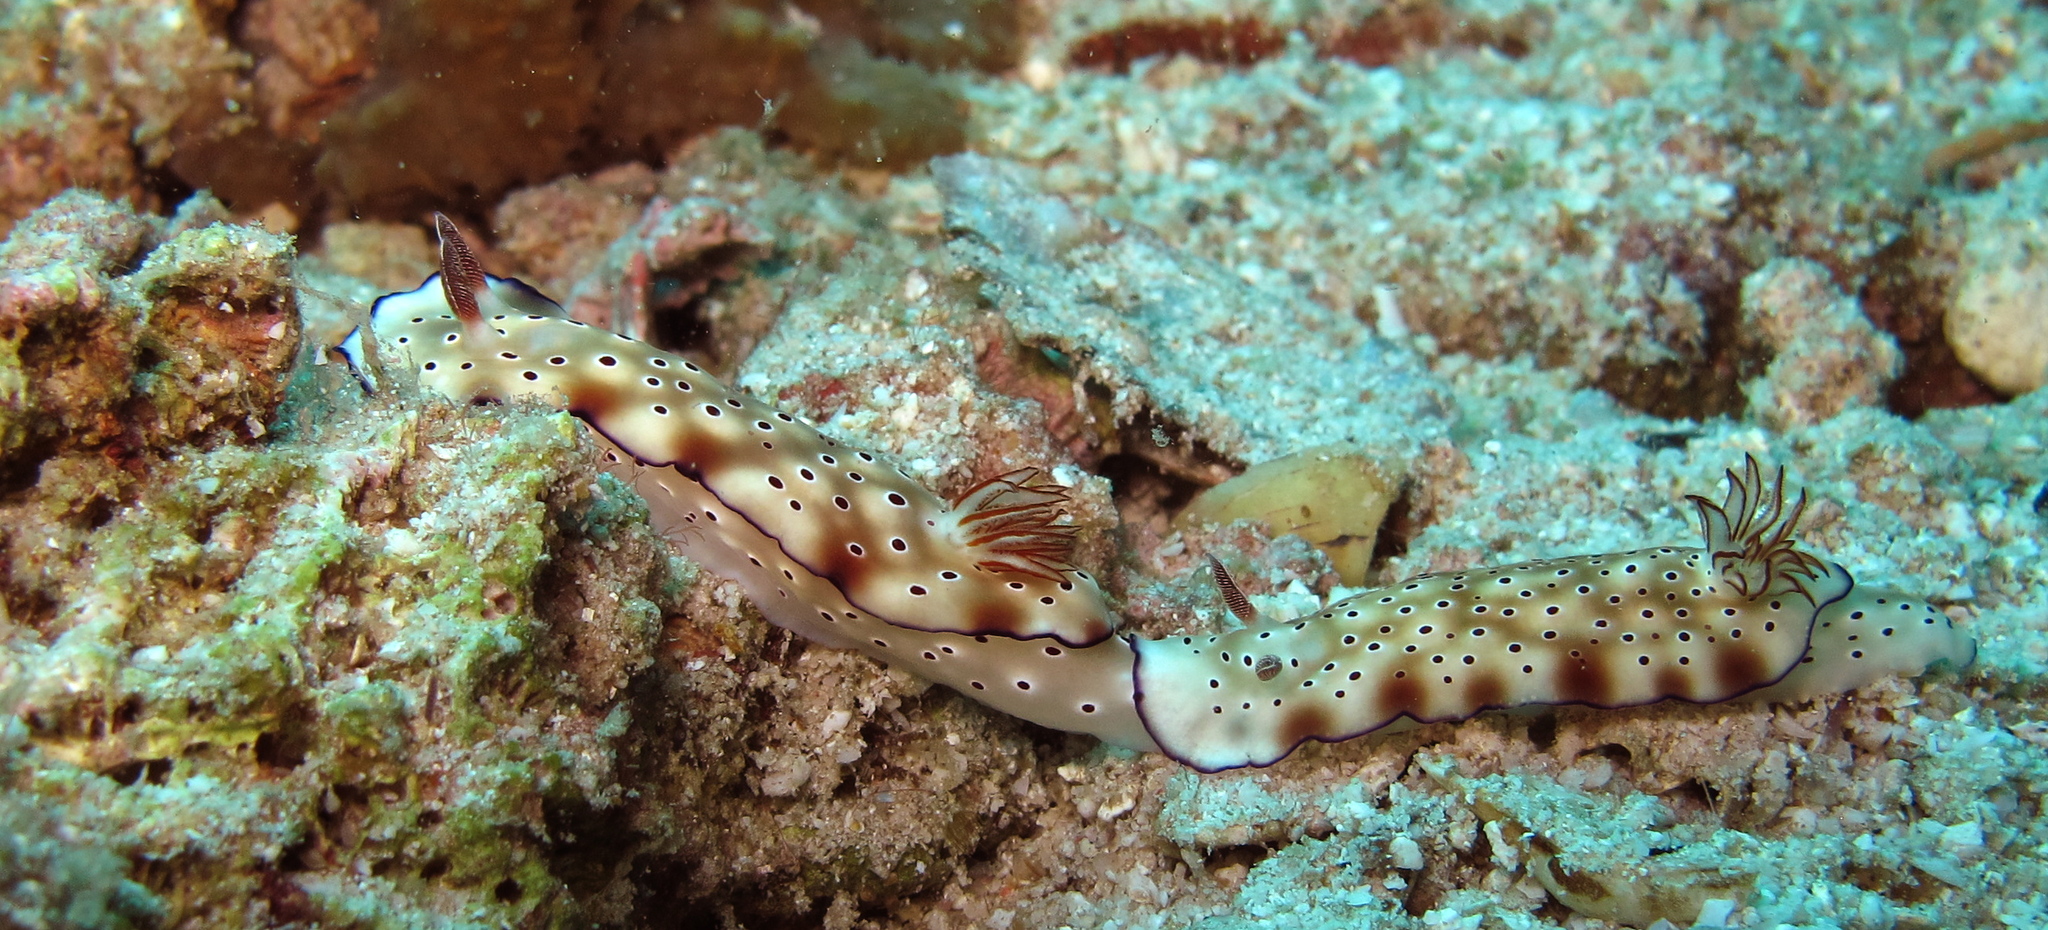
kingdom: Animalia
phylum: Mollusca
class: Gastropoda
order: Nudibranchia
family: Chromodorididae
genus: Hypselodoris
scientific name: Hypselodoris tryoni
